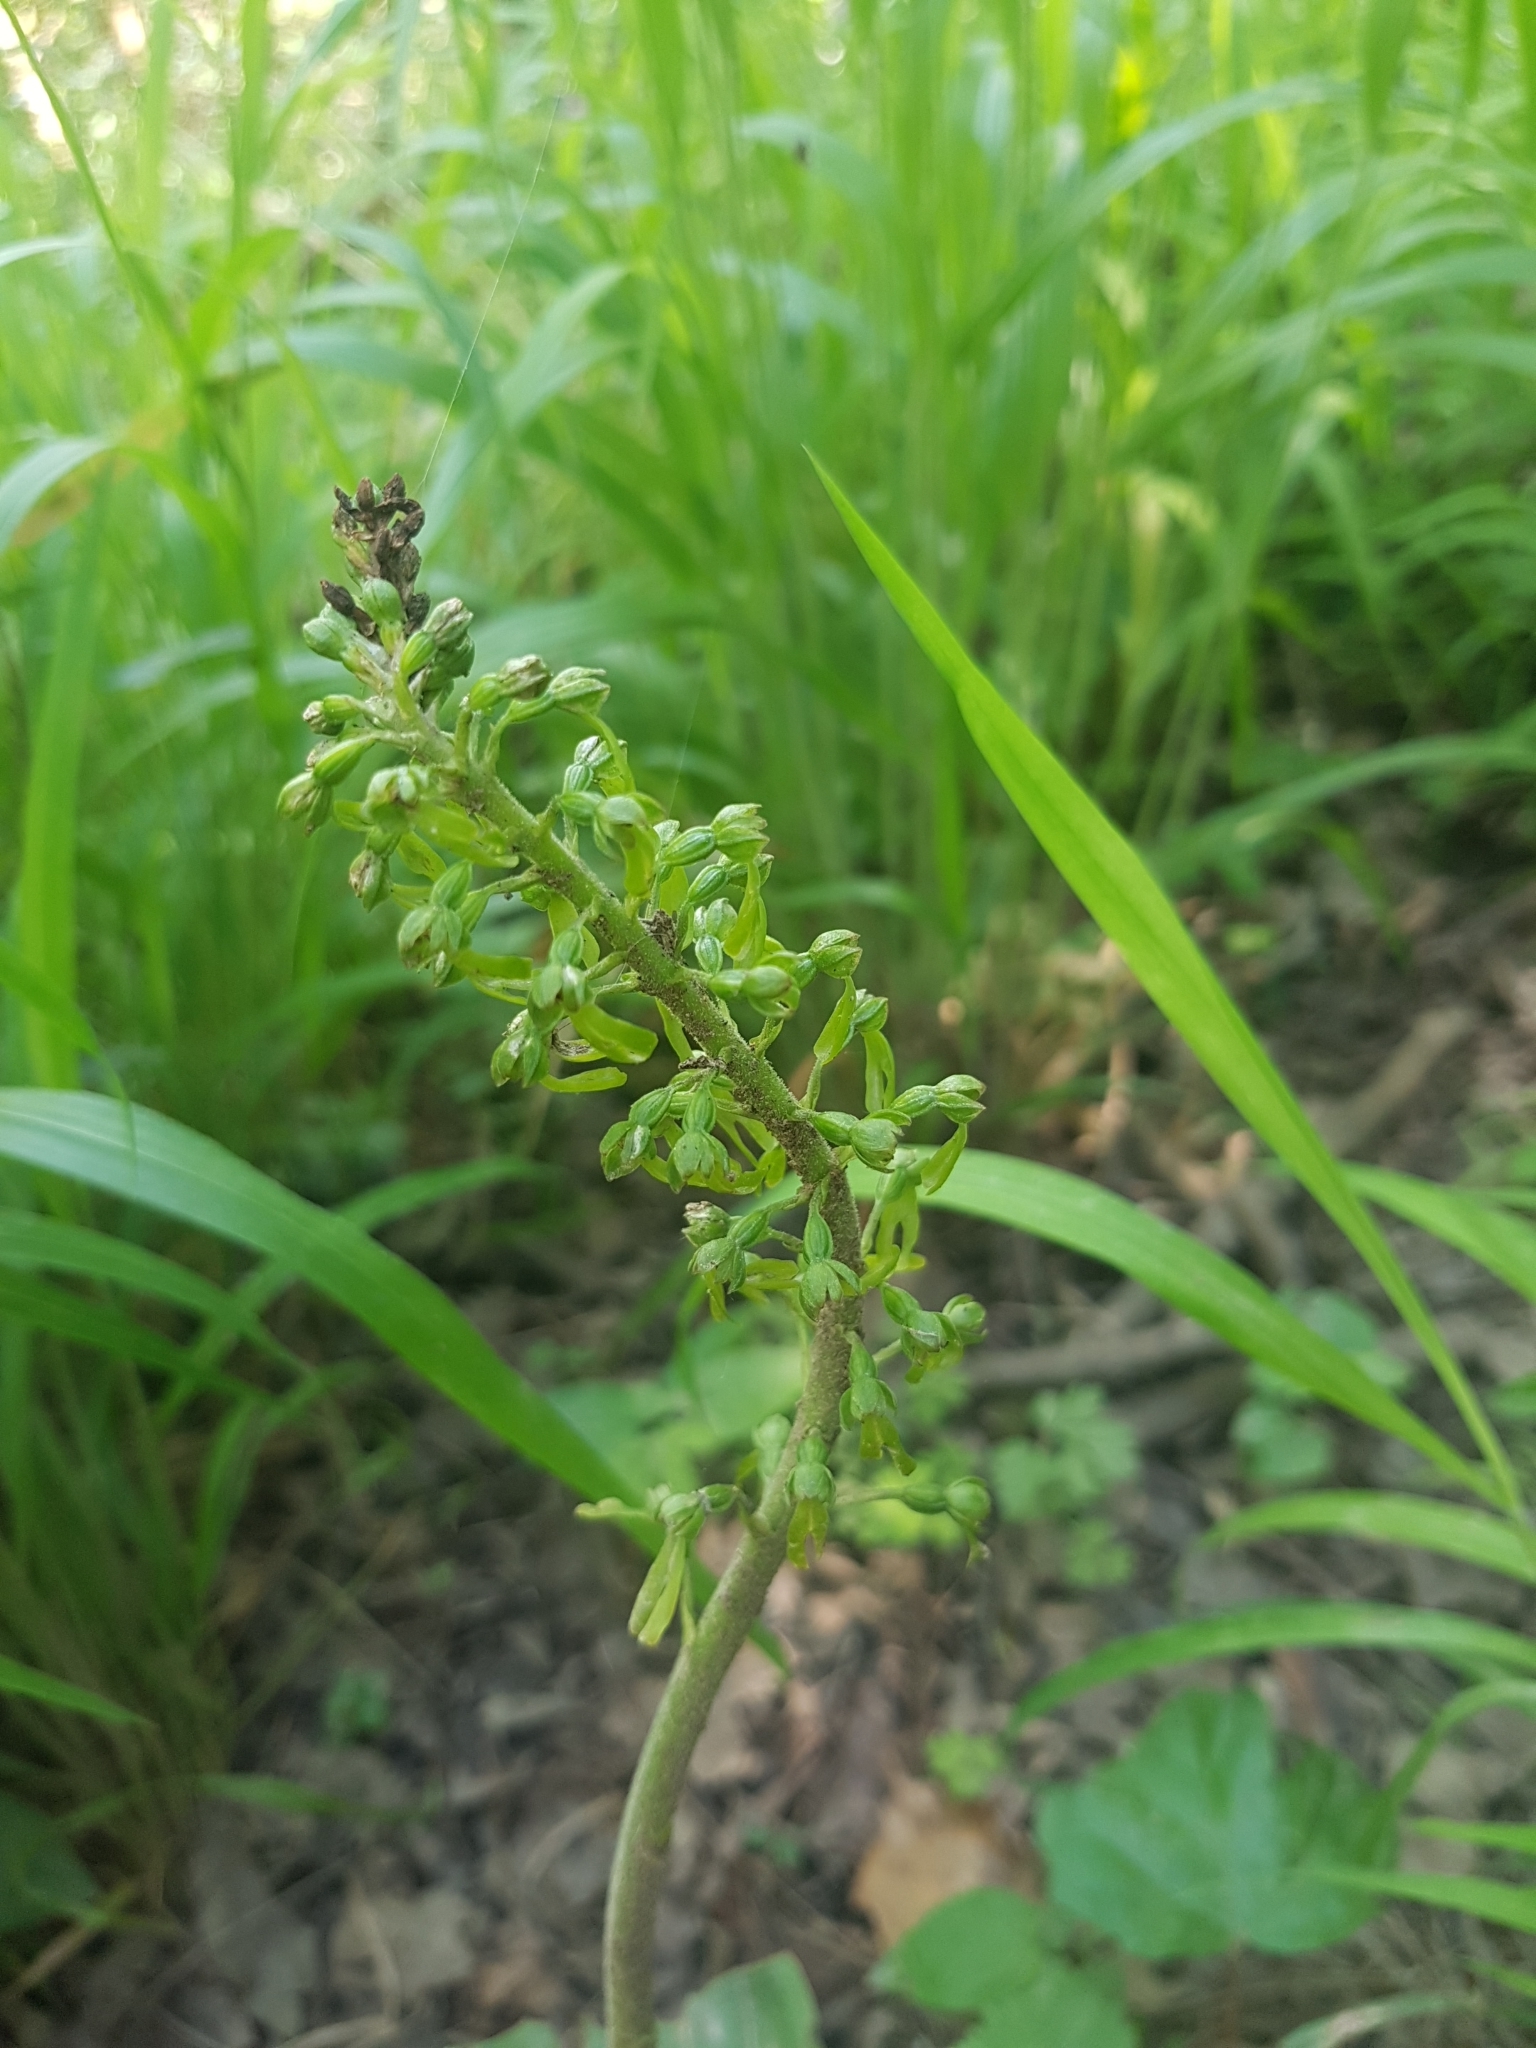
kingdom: Plantae
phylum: Tracheophyta
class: Liliopsida
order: Asparagales
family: Orchidaceae
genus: Neottia
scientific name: Neottia ovata
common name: Common twayblade
